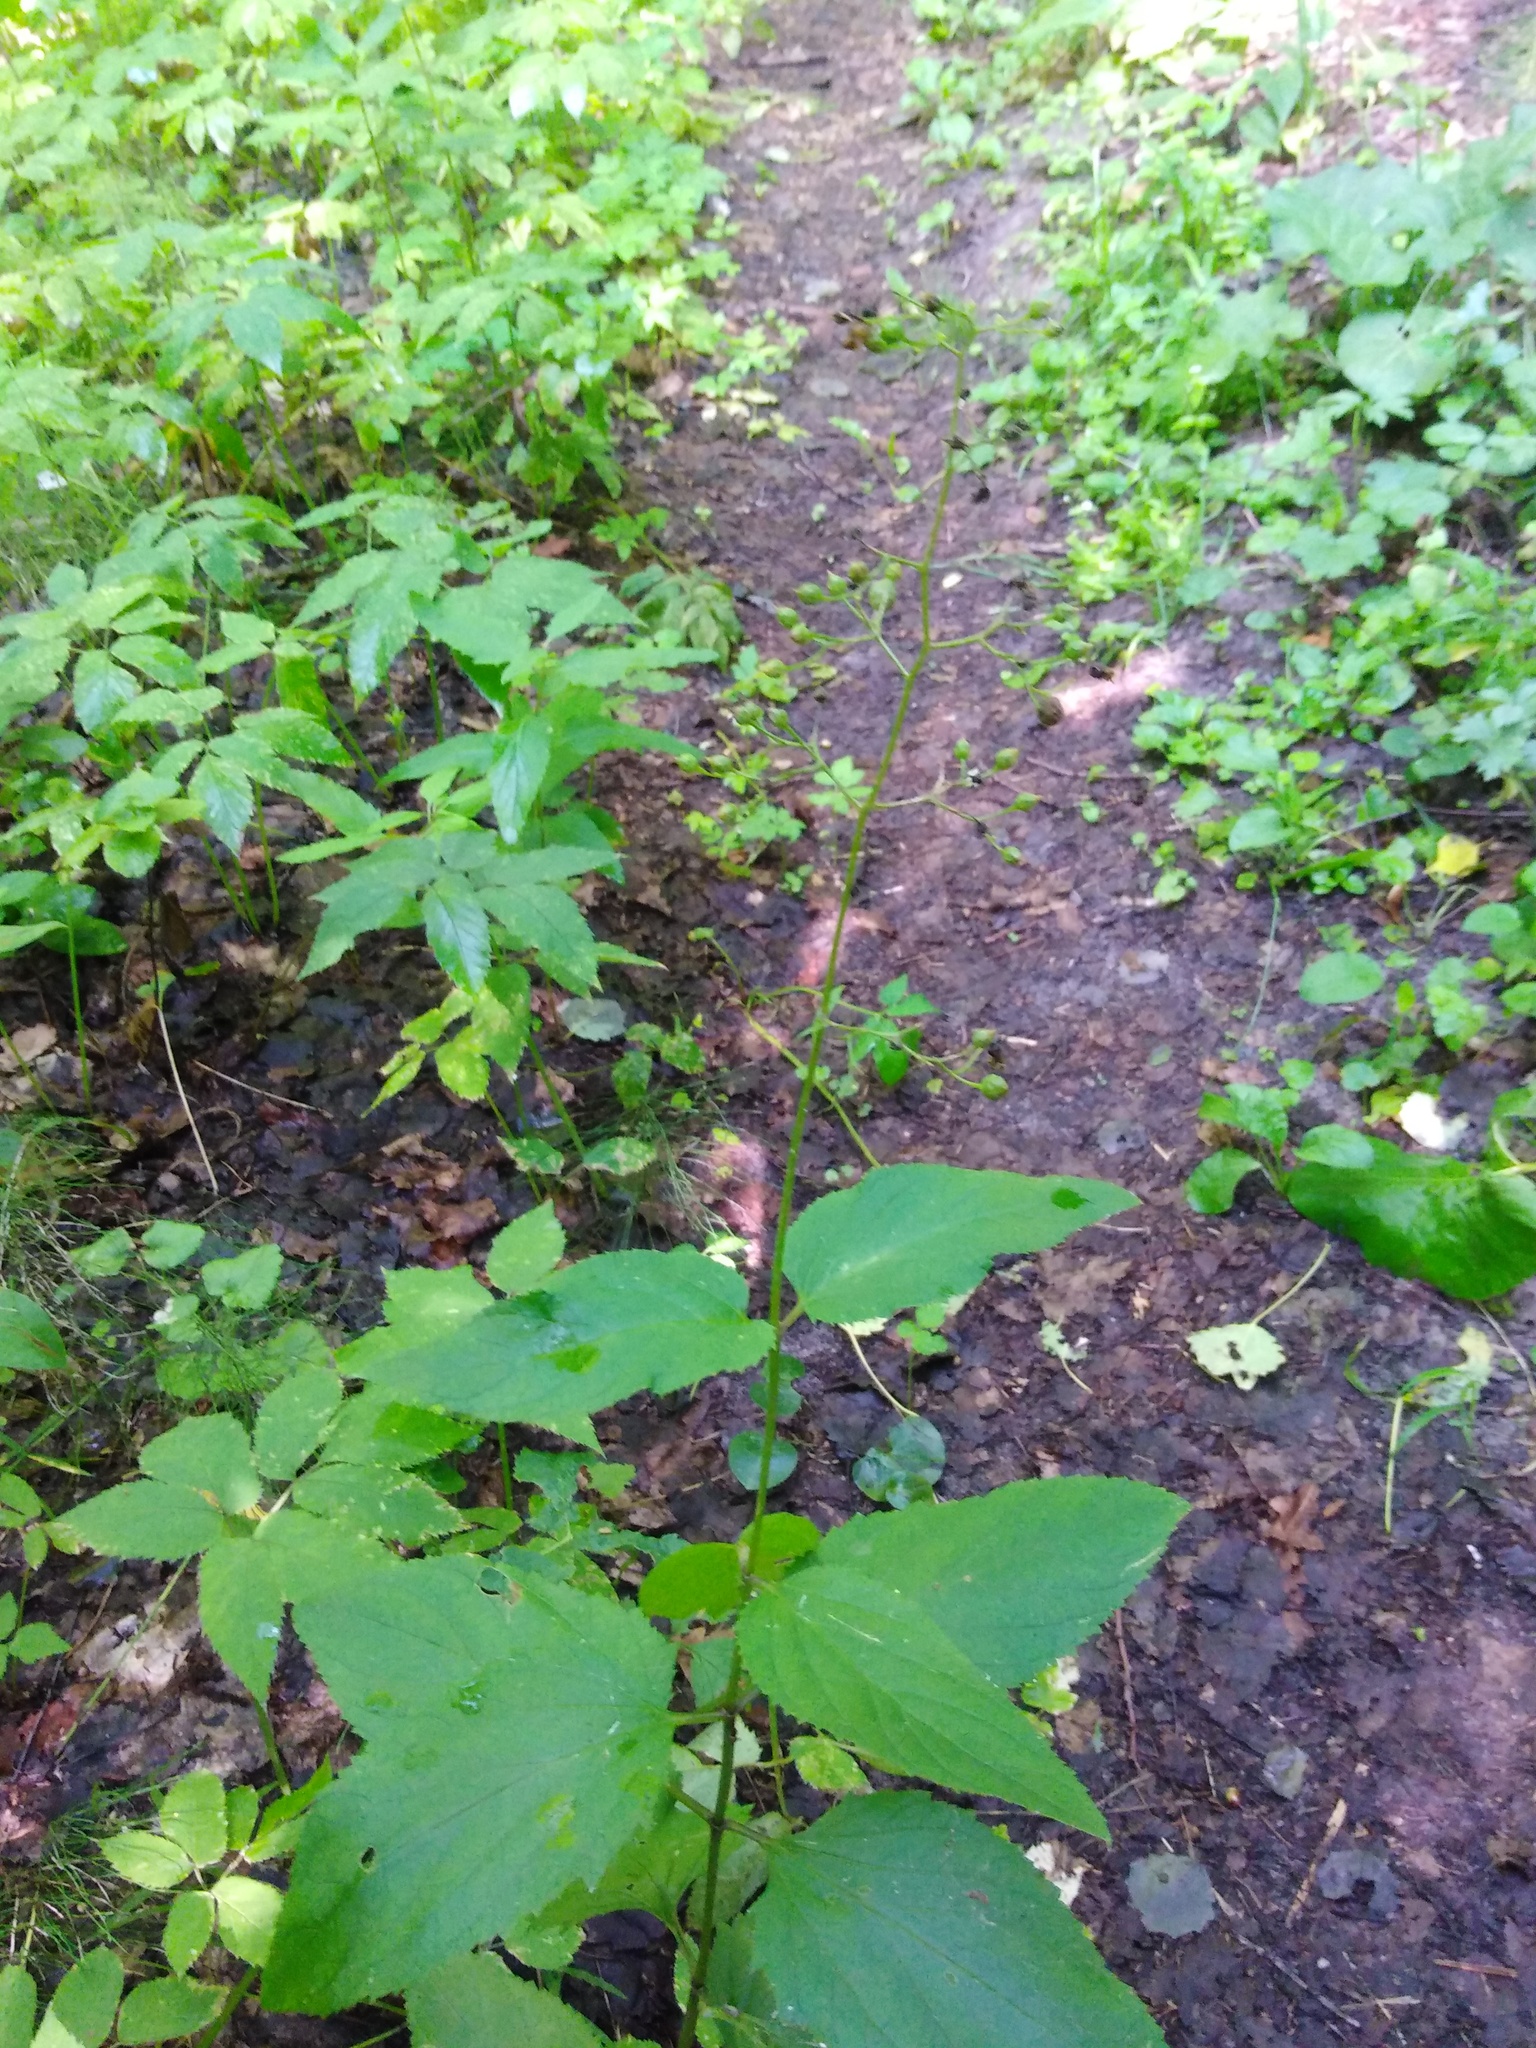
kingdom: Plantae
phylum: Tracheophyta
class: Magnoliopsida
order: Lamiales
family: Scrophulariaceae
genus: Scrophularia
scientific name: Scrophularia nodosa
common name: Common figwort
